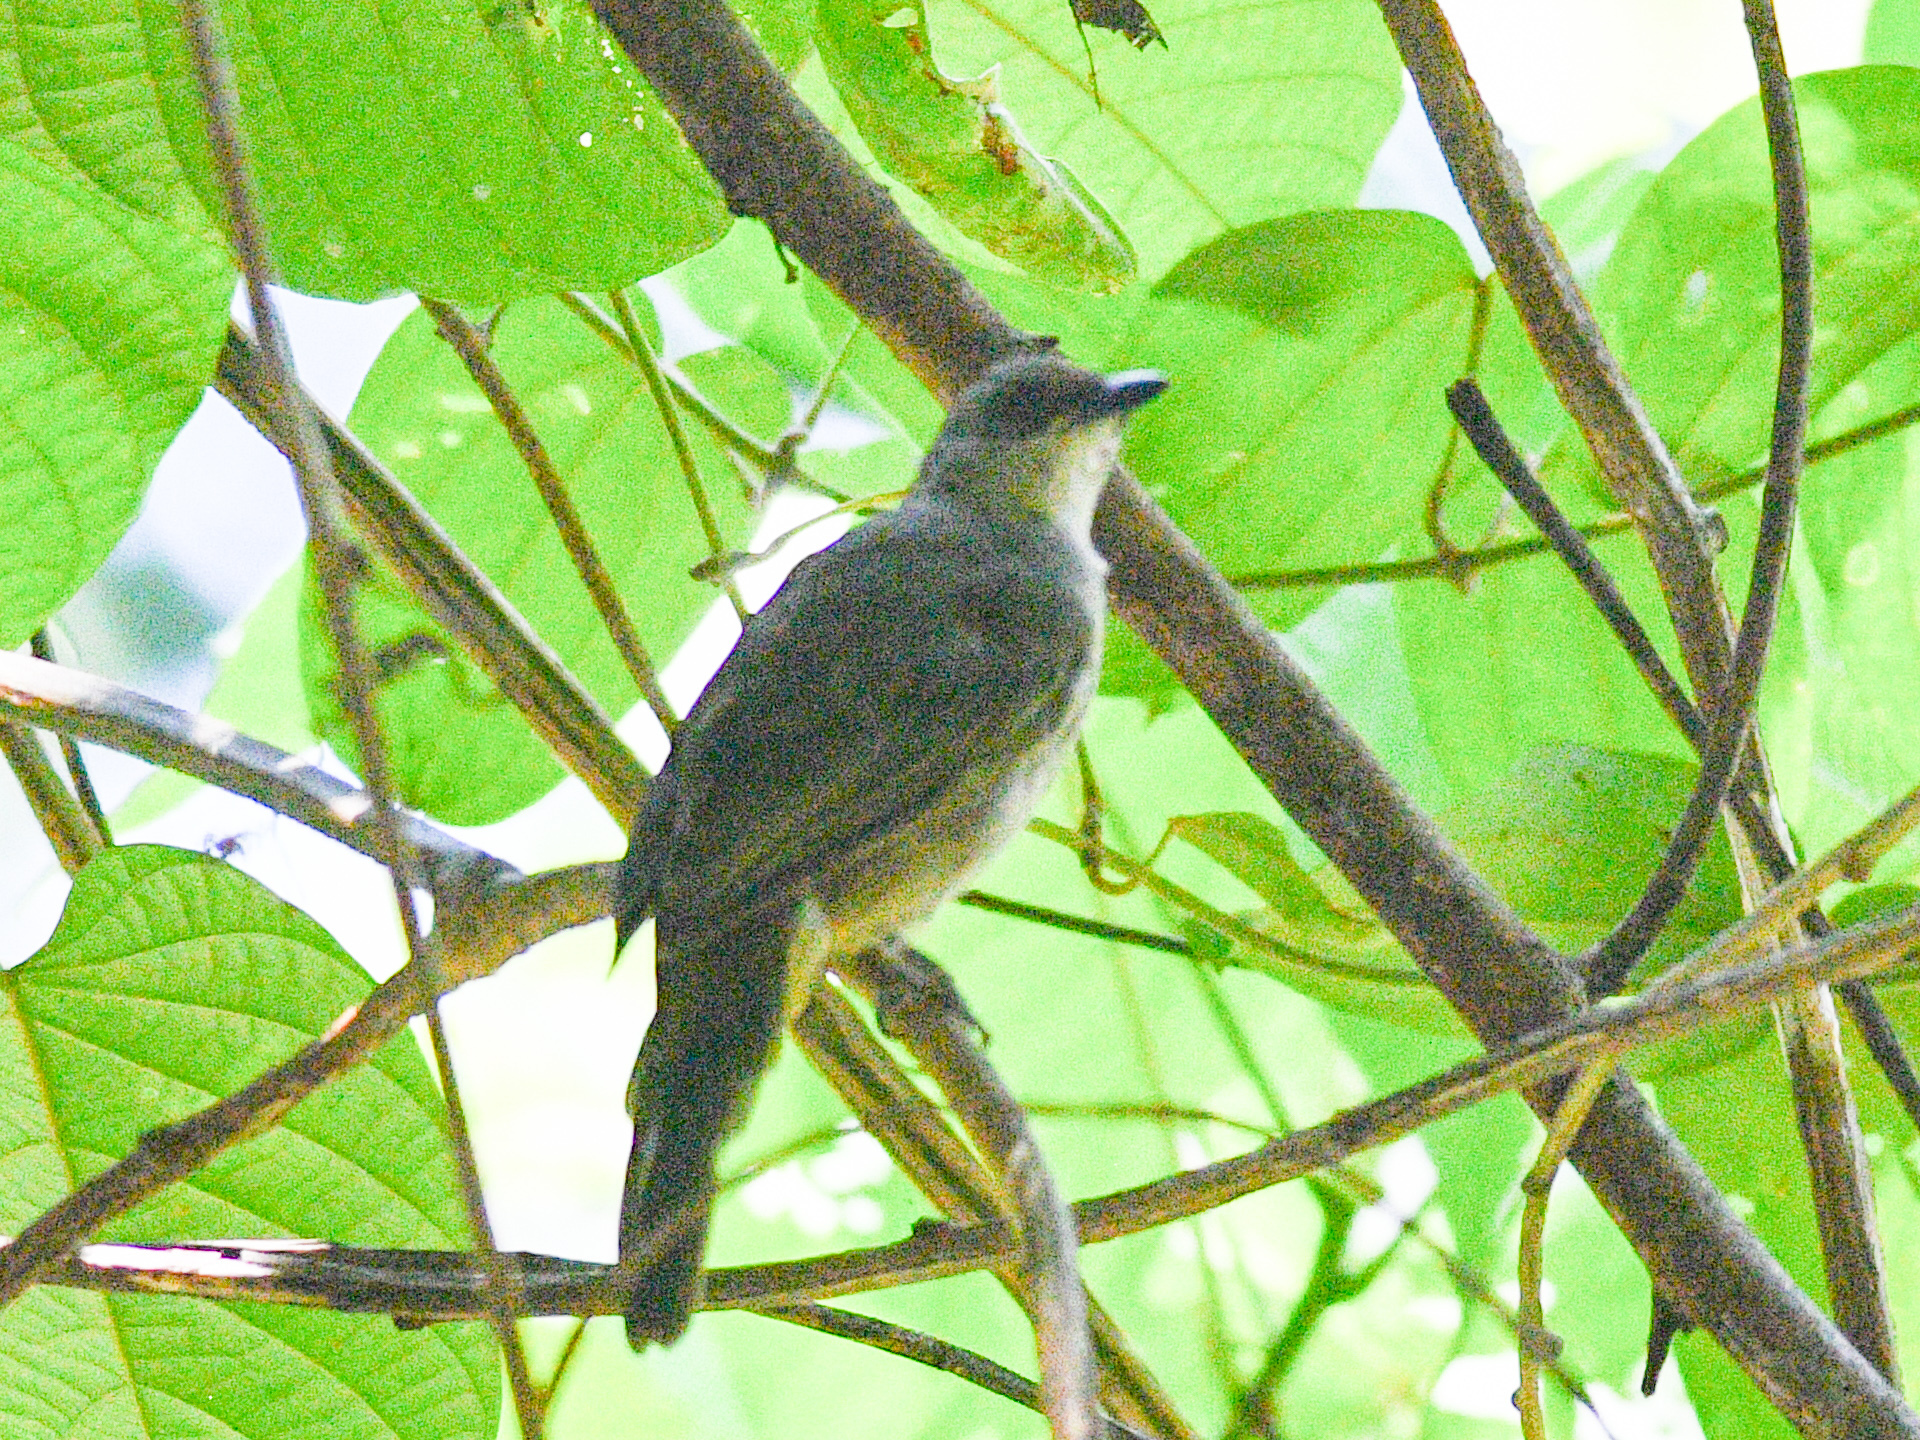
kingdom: Animalia
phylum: Chordata
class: Aves
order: Passeriformes
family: Pycnonotidae
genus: Pycnonotus
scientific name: Pycnonotus plumosus
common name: Olive-winged bulbul
